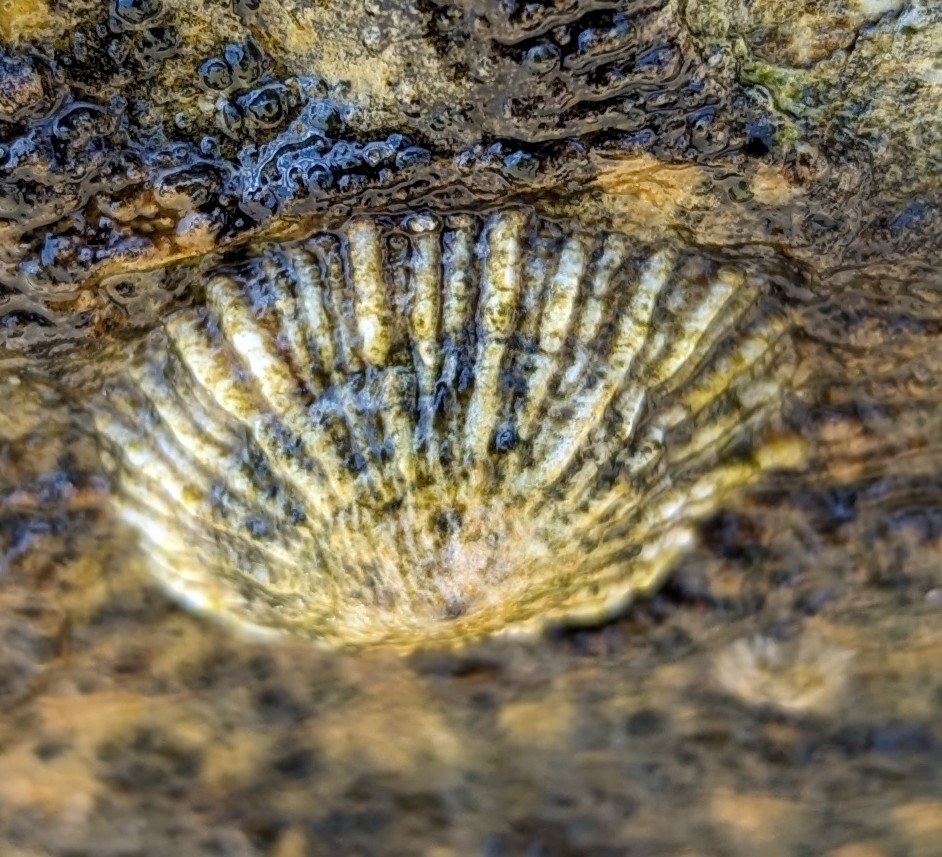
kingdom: Animalia
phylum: Mollusca
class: Gastropoda
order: Siphonariida
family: Siphonariidae
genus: Siphonaria
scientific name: Siphonaria denticulata
